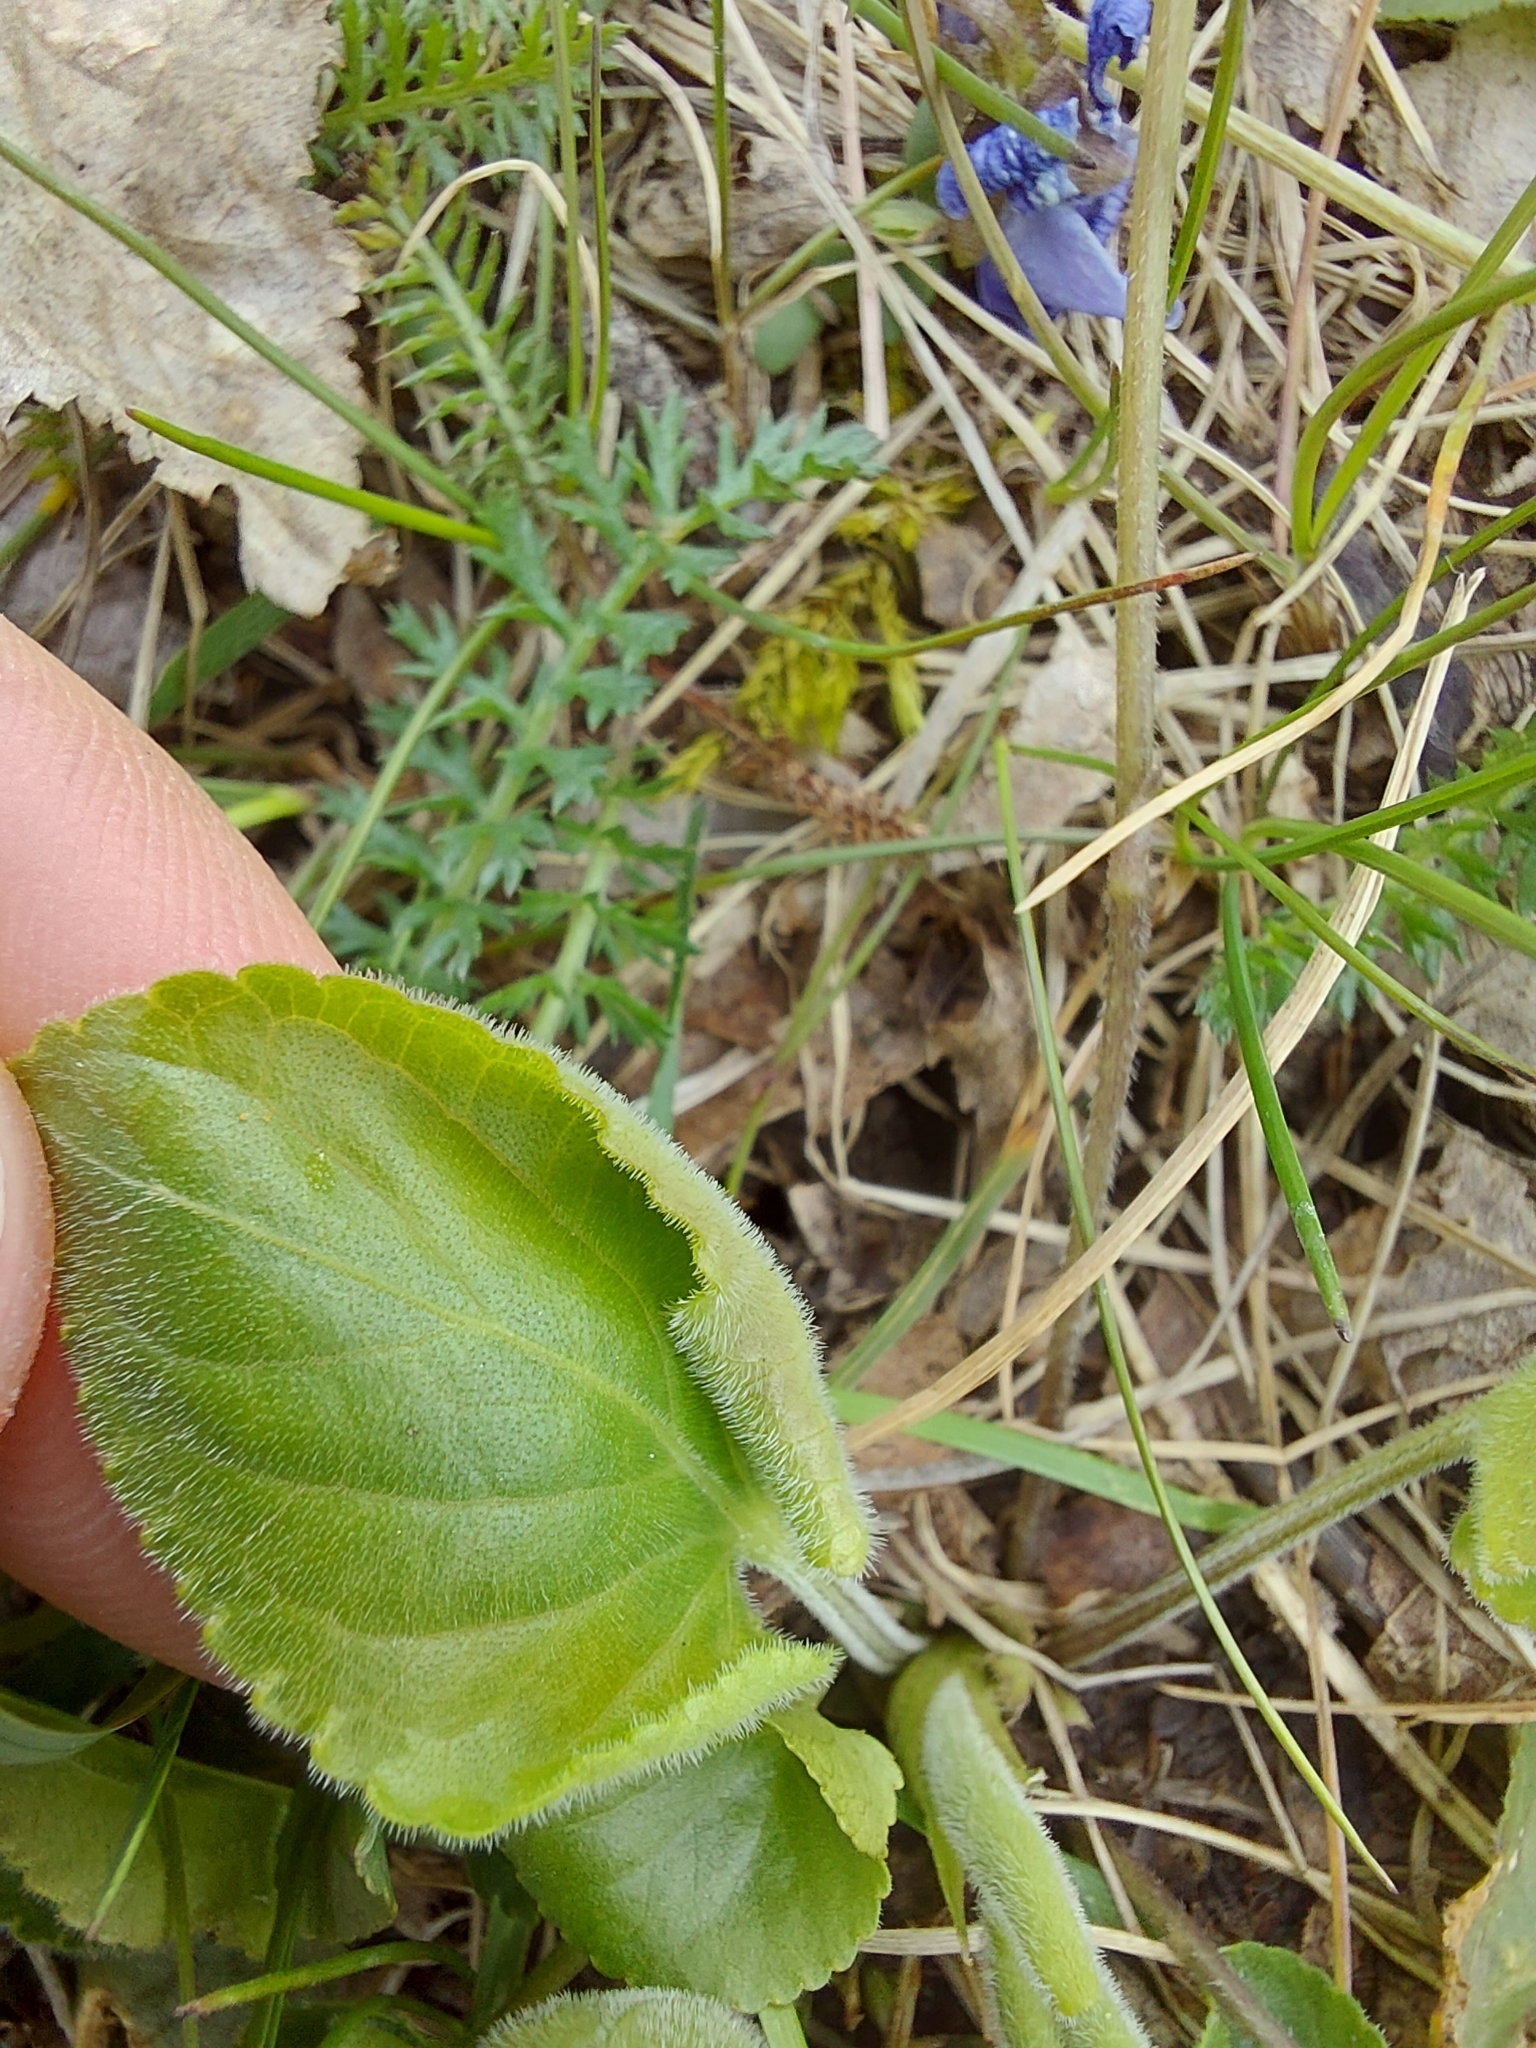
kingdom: Plantae
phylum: Tracheophyta
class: Magnoliopsida
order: Malpighiales
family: Violaceae
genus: Viola
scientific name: Viola hirta
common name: Hairy violet
